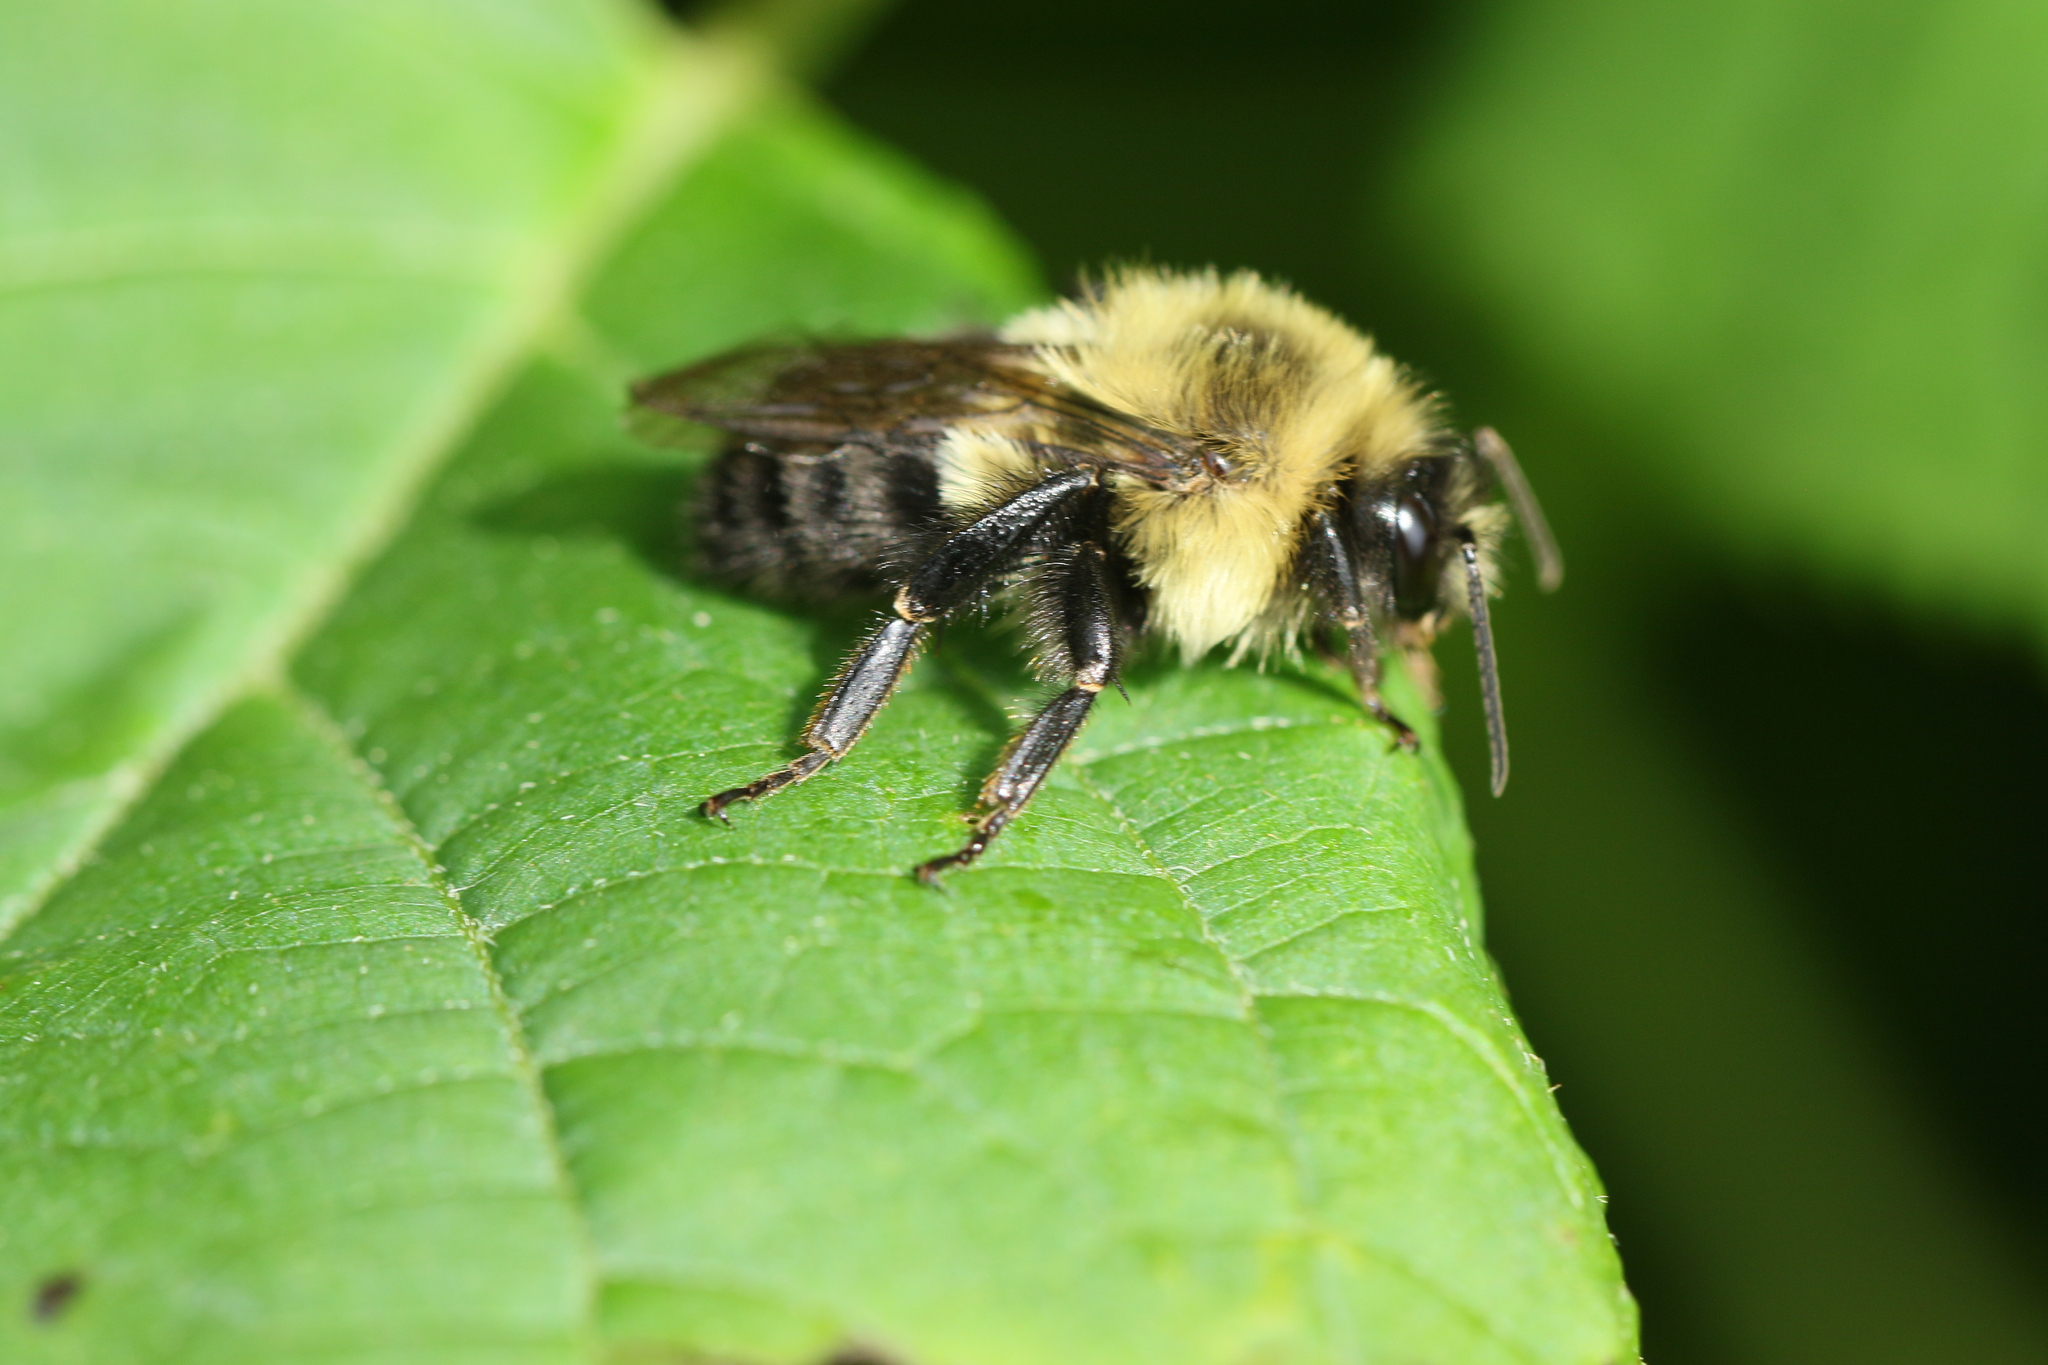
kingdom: Animalia
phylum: Arthropoda
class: Insecta
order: Hymenoptera
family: Apidae
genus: Bombus
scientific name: Bombus impatiens
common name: Common eastern bumble bee
